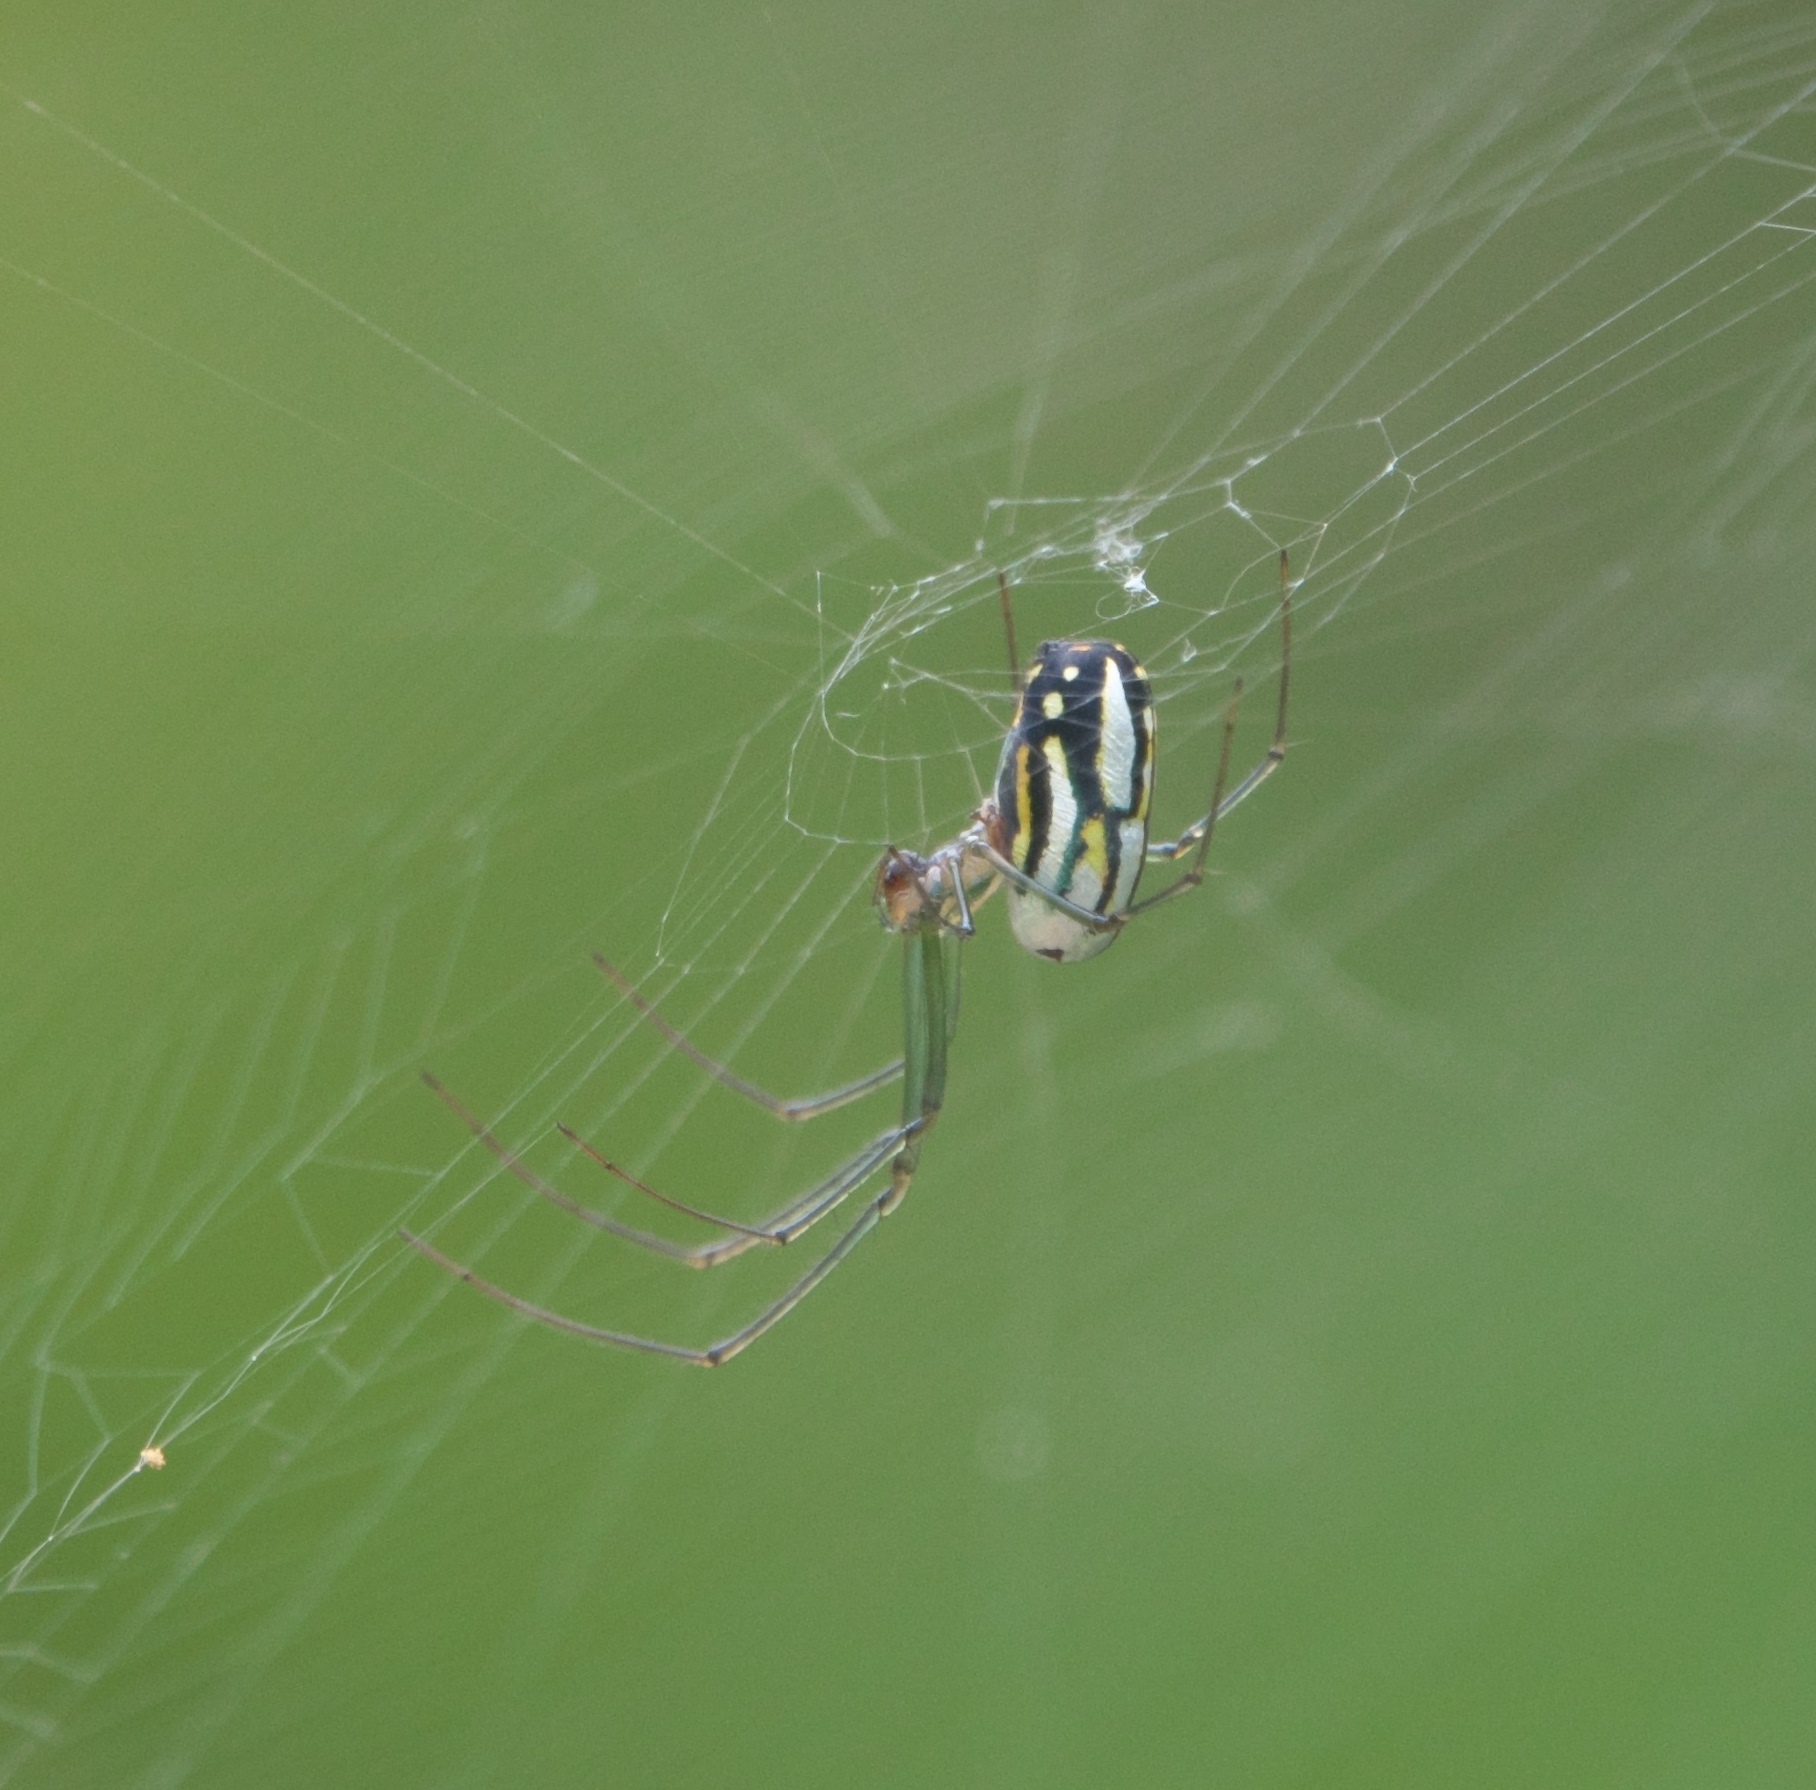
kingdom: Animalia
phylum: Arthropoda
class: Arachnida
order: Araneae
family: Tetragnathidae
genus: Leucauge
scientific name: Leucauge argyra
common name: Longjawed orb weavers
